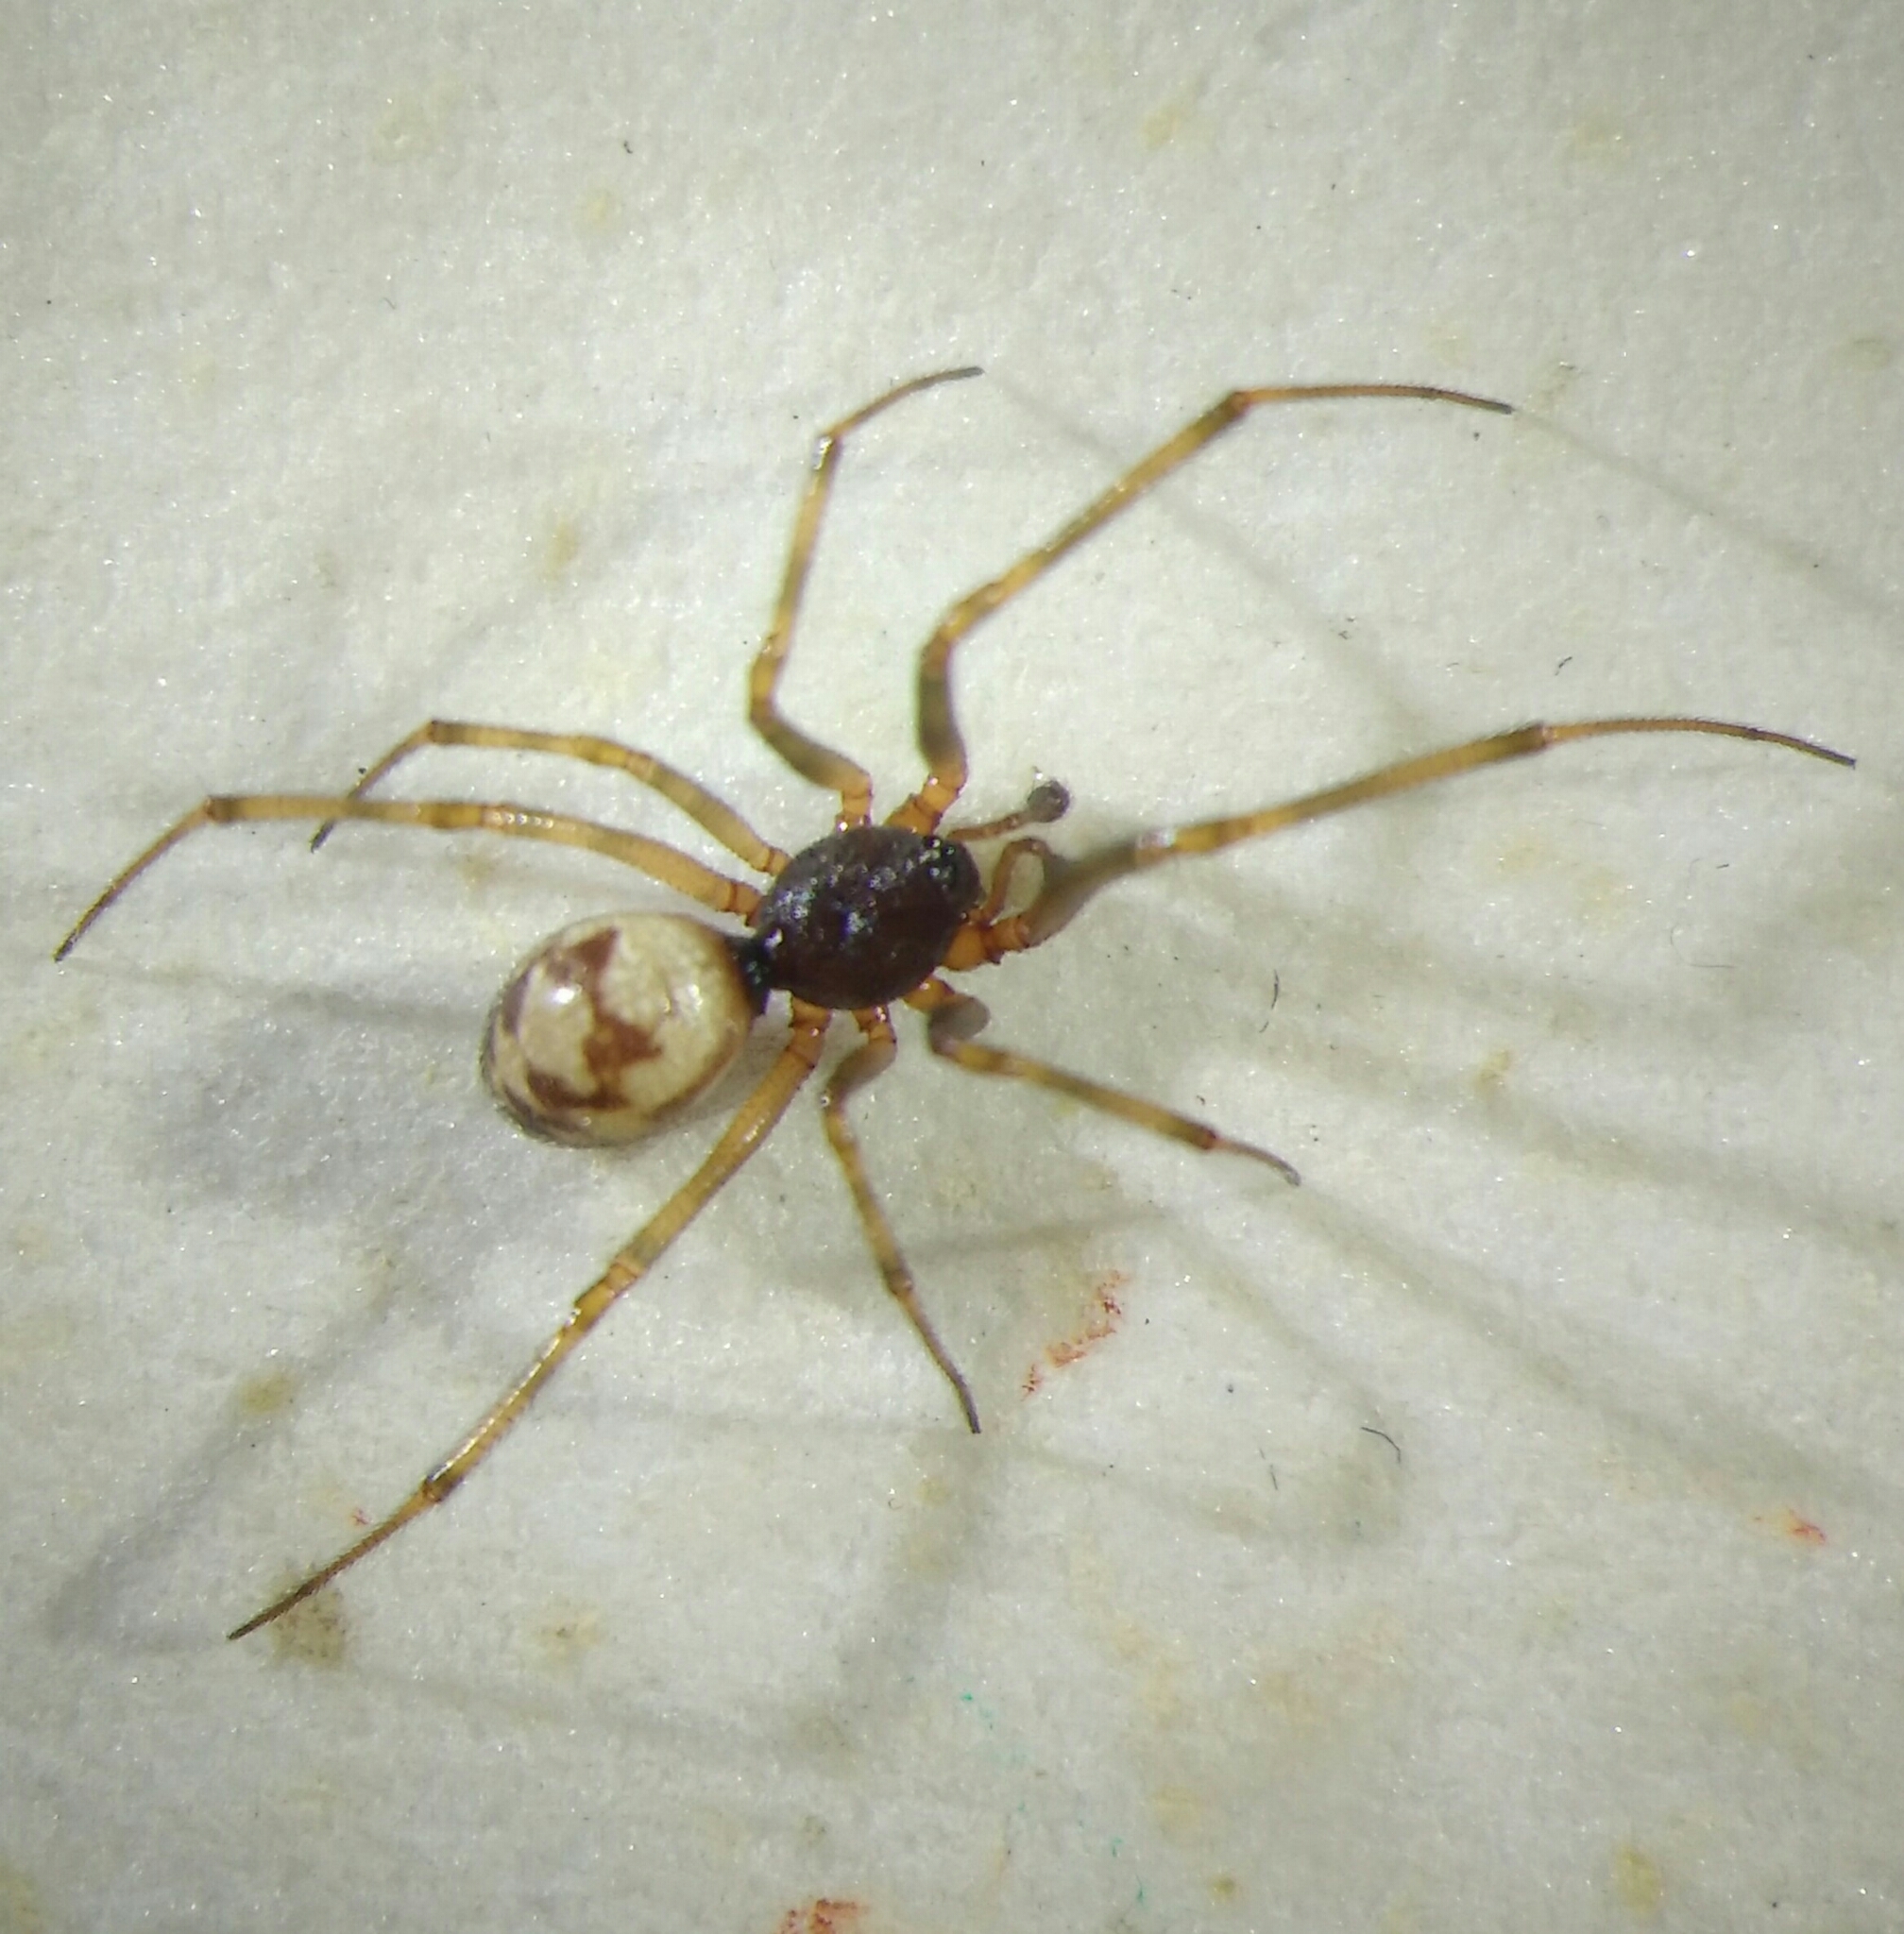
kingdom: Animalia
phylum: Arthropoda
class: Arachnida
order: Araneae
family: Theridiidae
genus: Steatoda
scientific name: Steatoda triangulosa
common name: Triangulate bud spider
